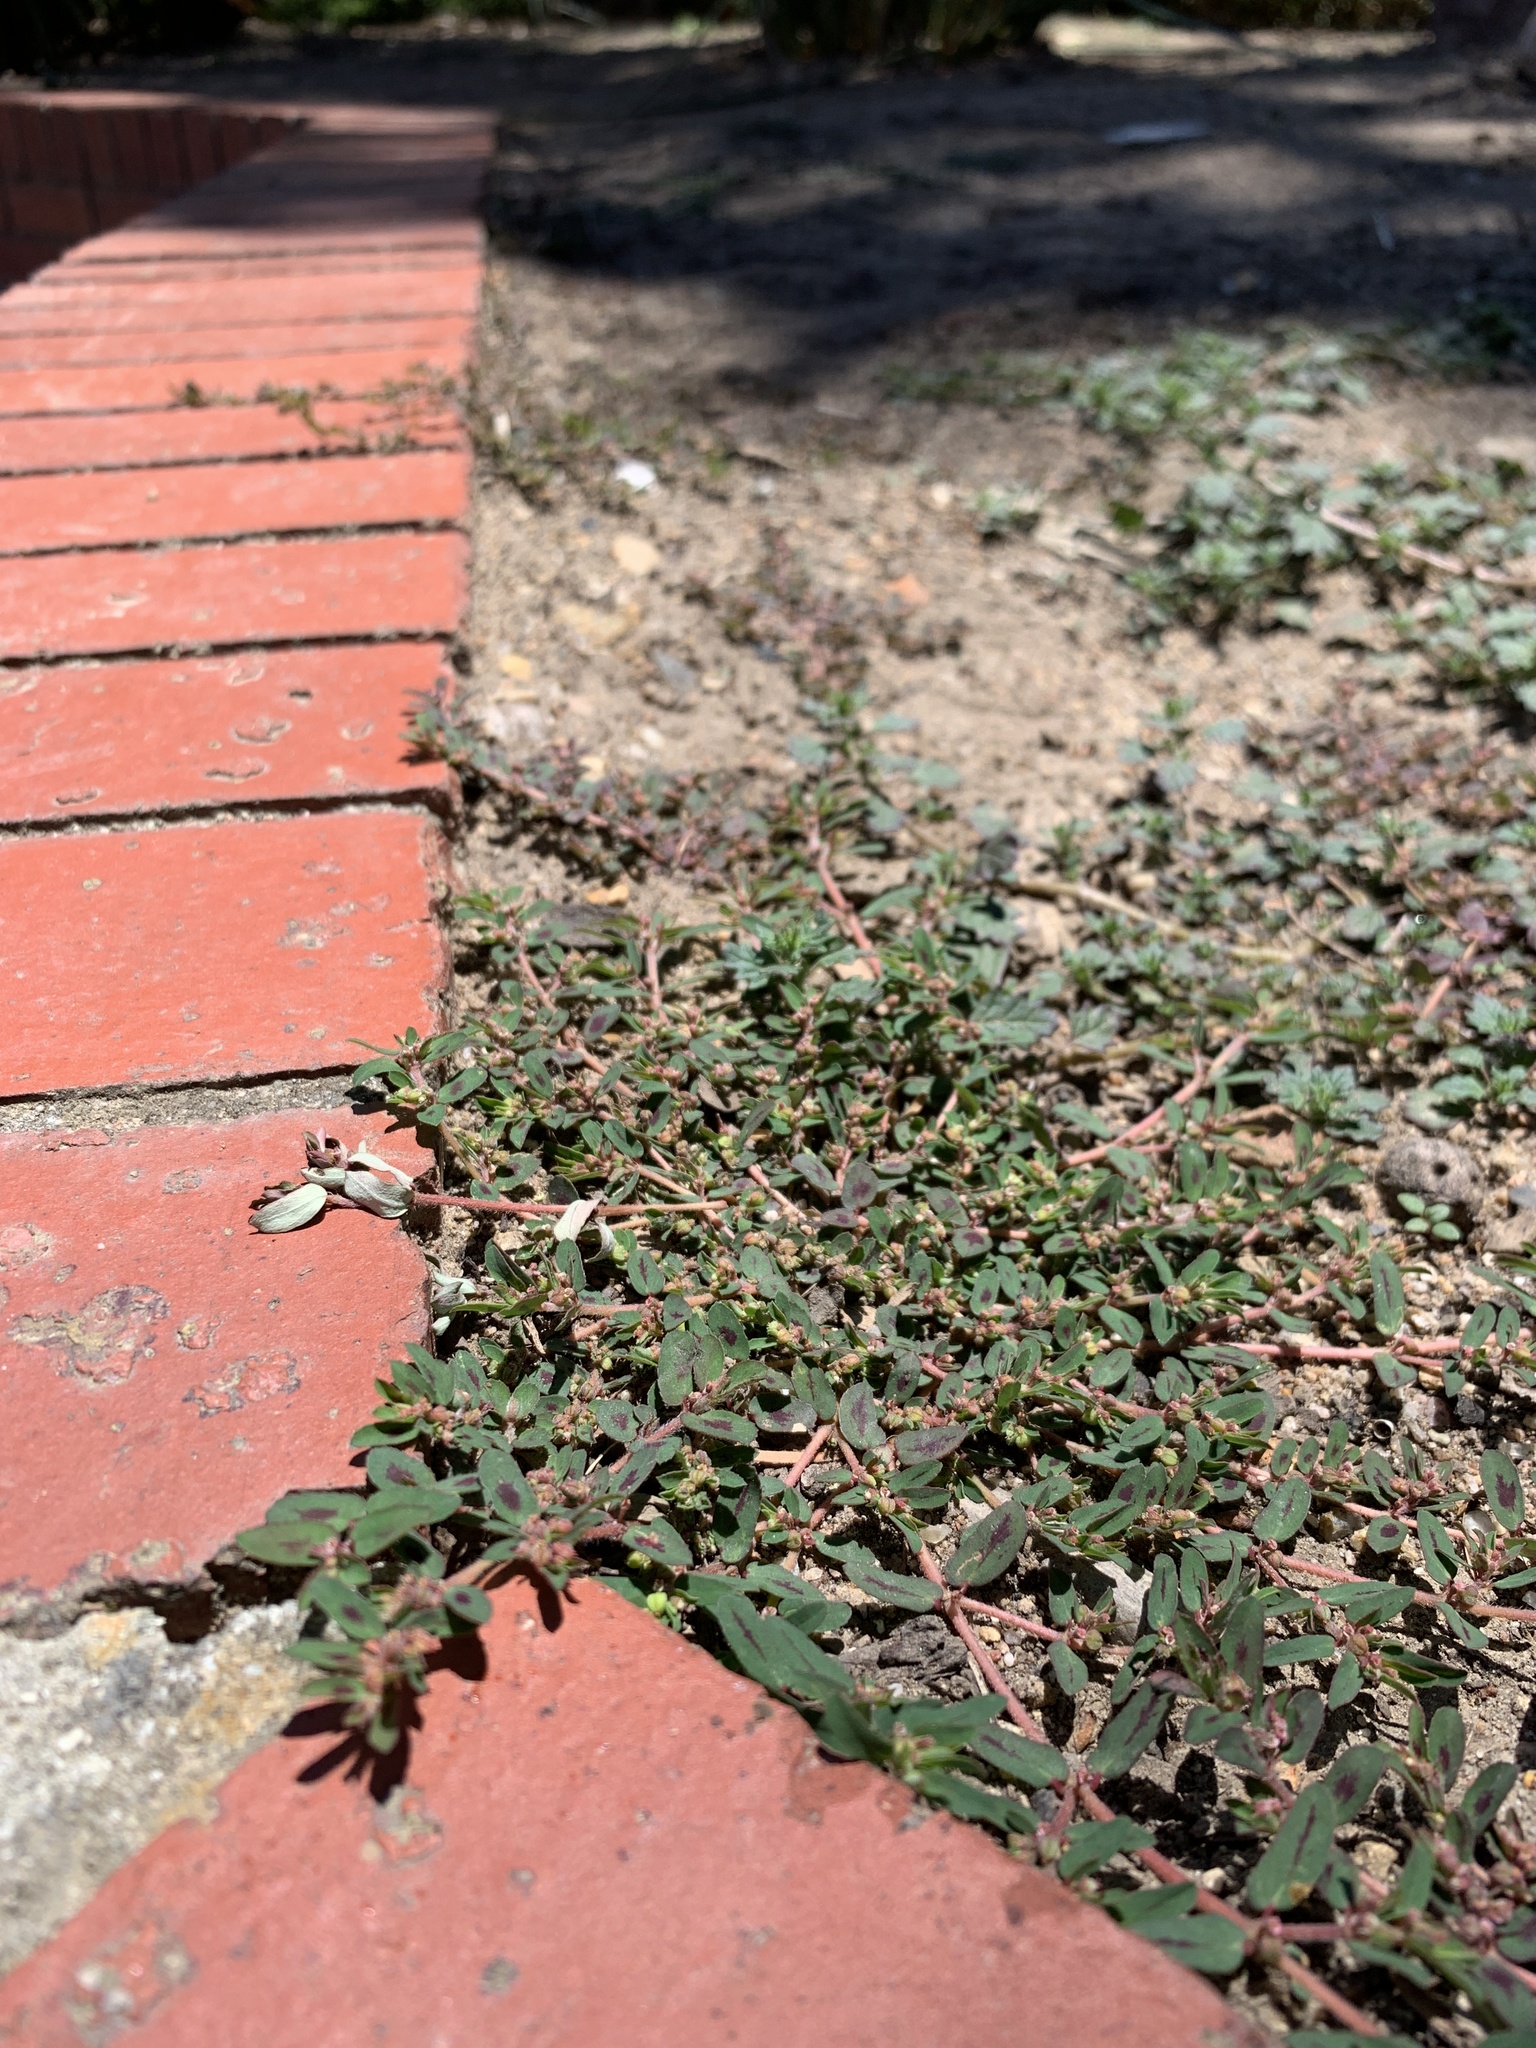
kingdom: Plantae
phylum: Tracheophyta
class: Magnoliopsida
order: Malpighiales
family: Euphorbiaceae
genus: Euphorbia
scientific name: Euphorbia maculata
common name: Spotted spurge
